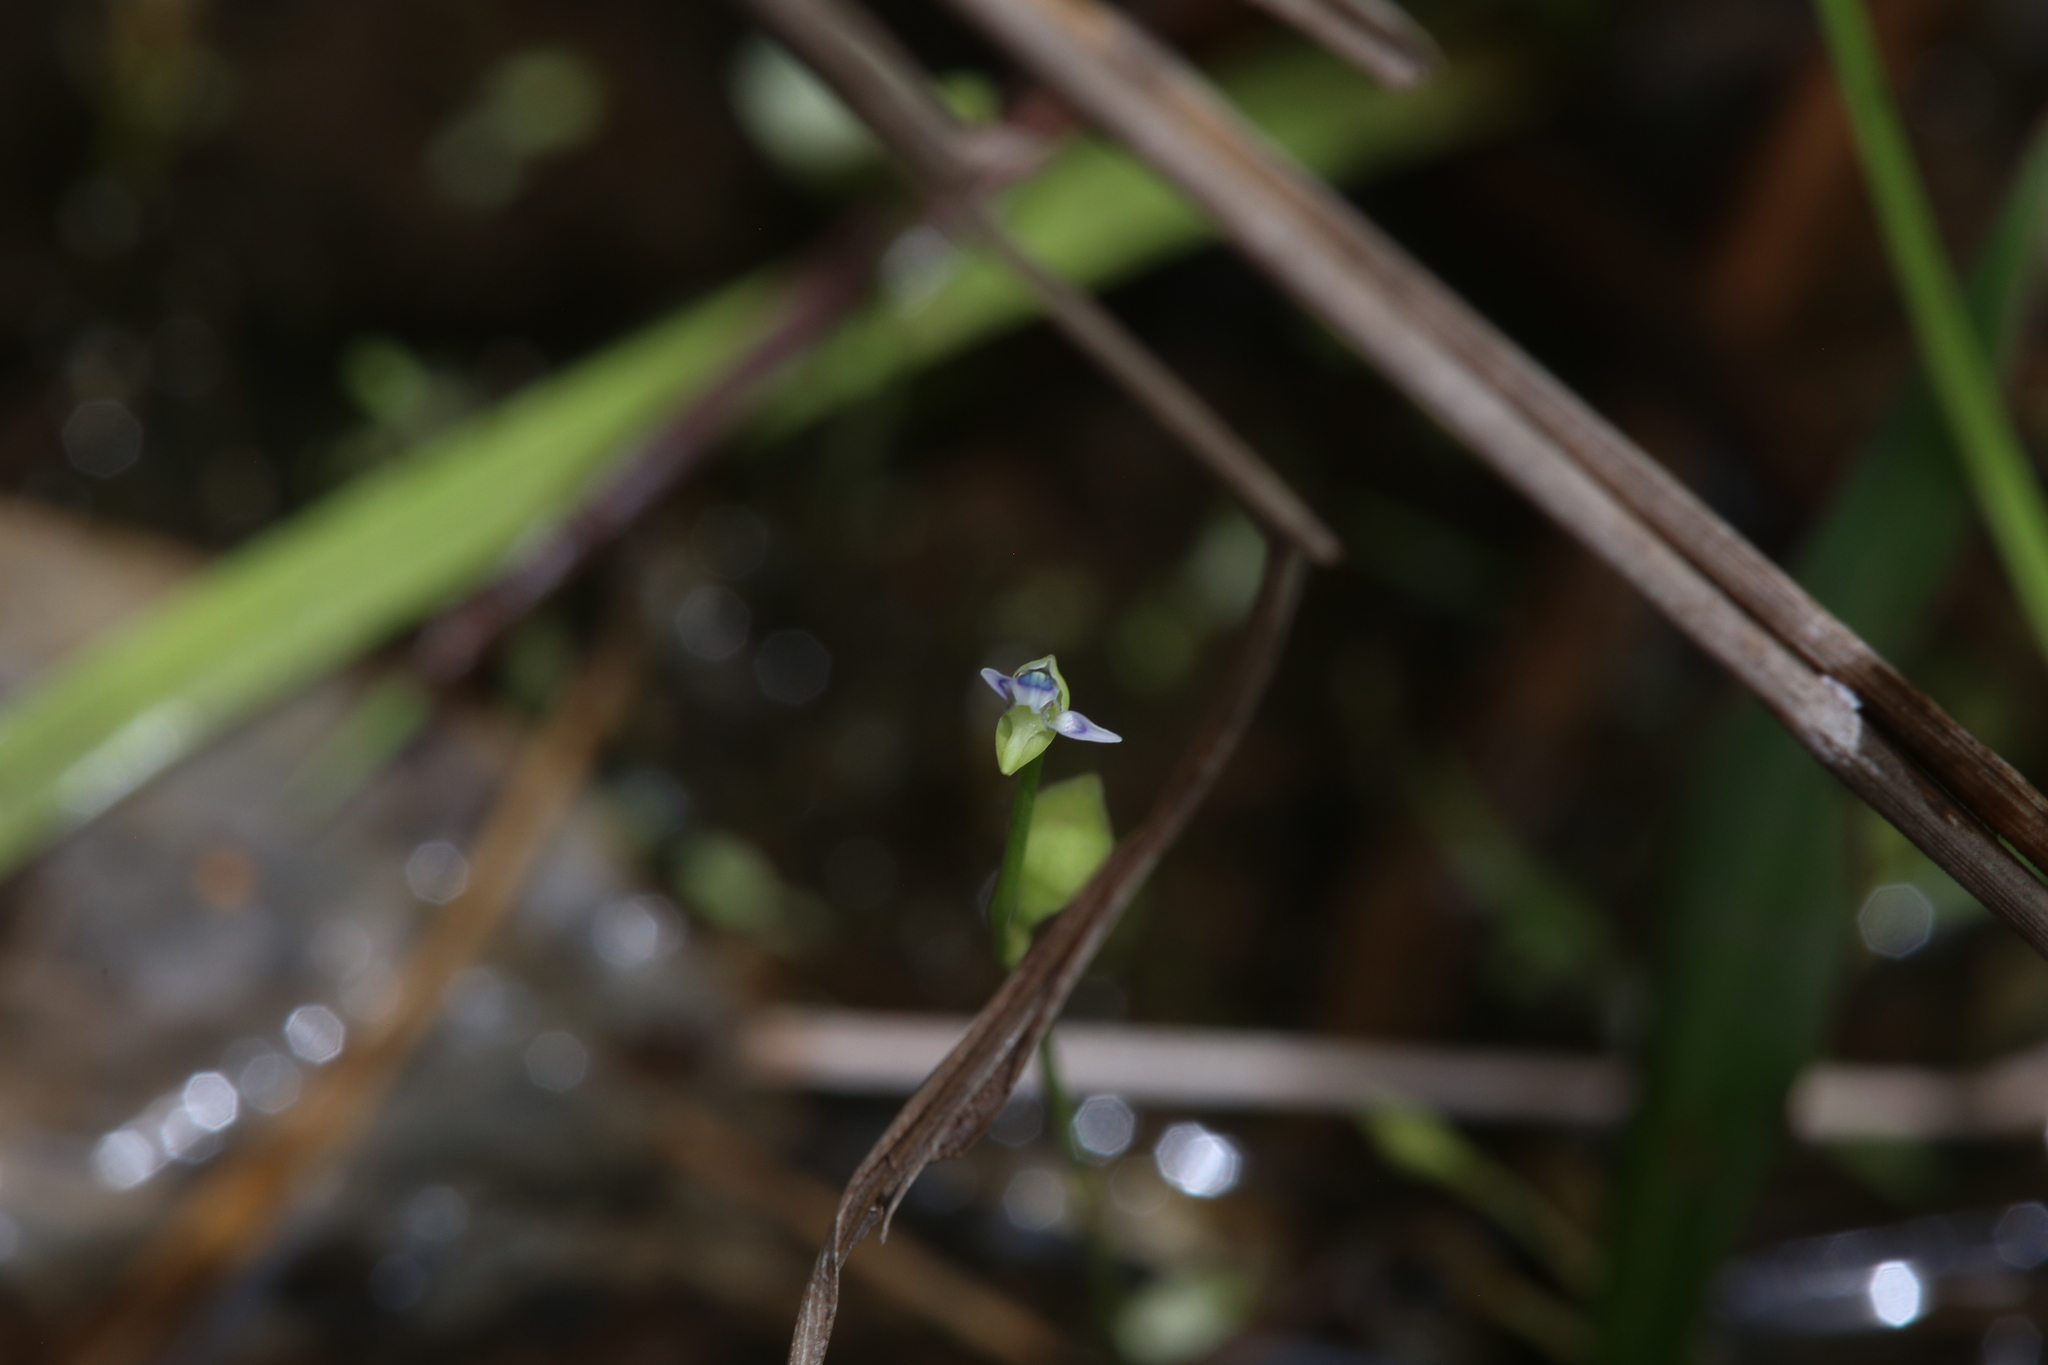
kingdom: Plantae
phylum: Tracheophyta
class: Magnoliopsida
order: Lamiales
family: Lentibulariaceae
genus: Utricularia
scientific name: Utricularia uliginosa
